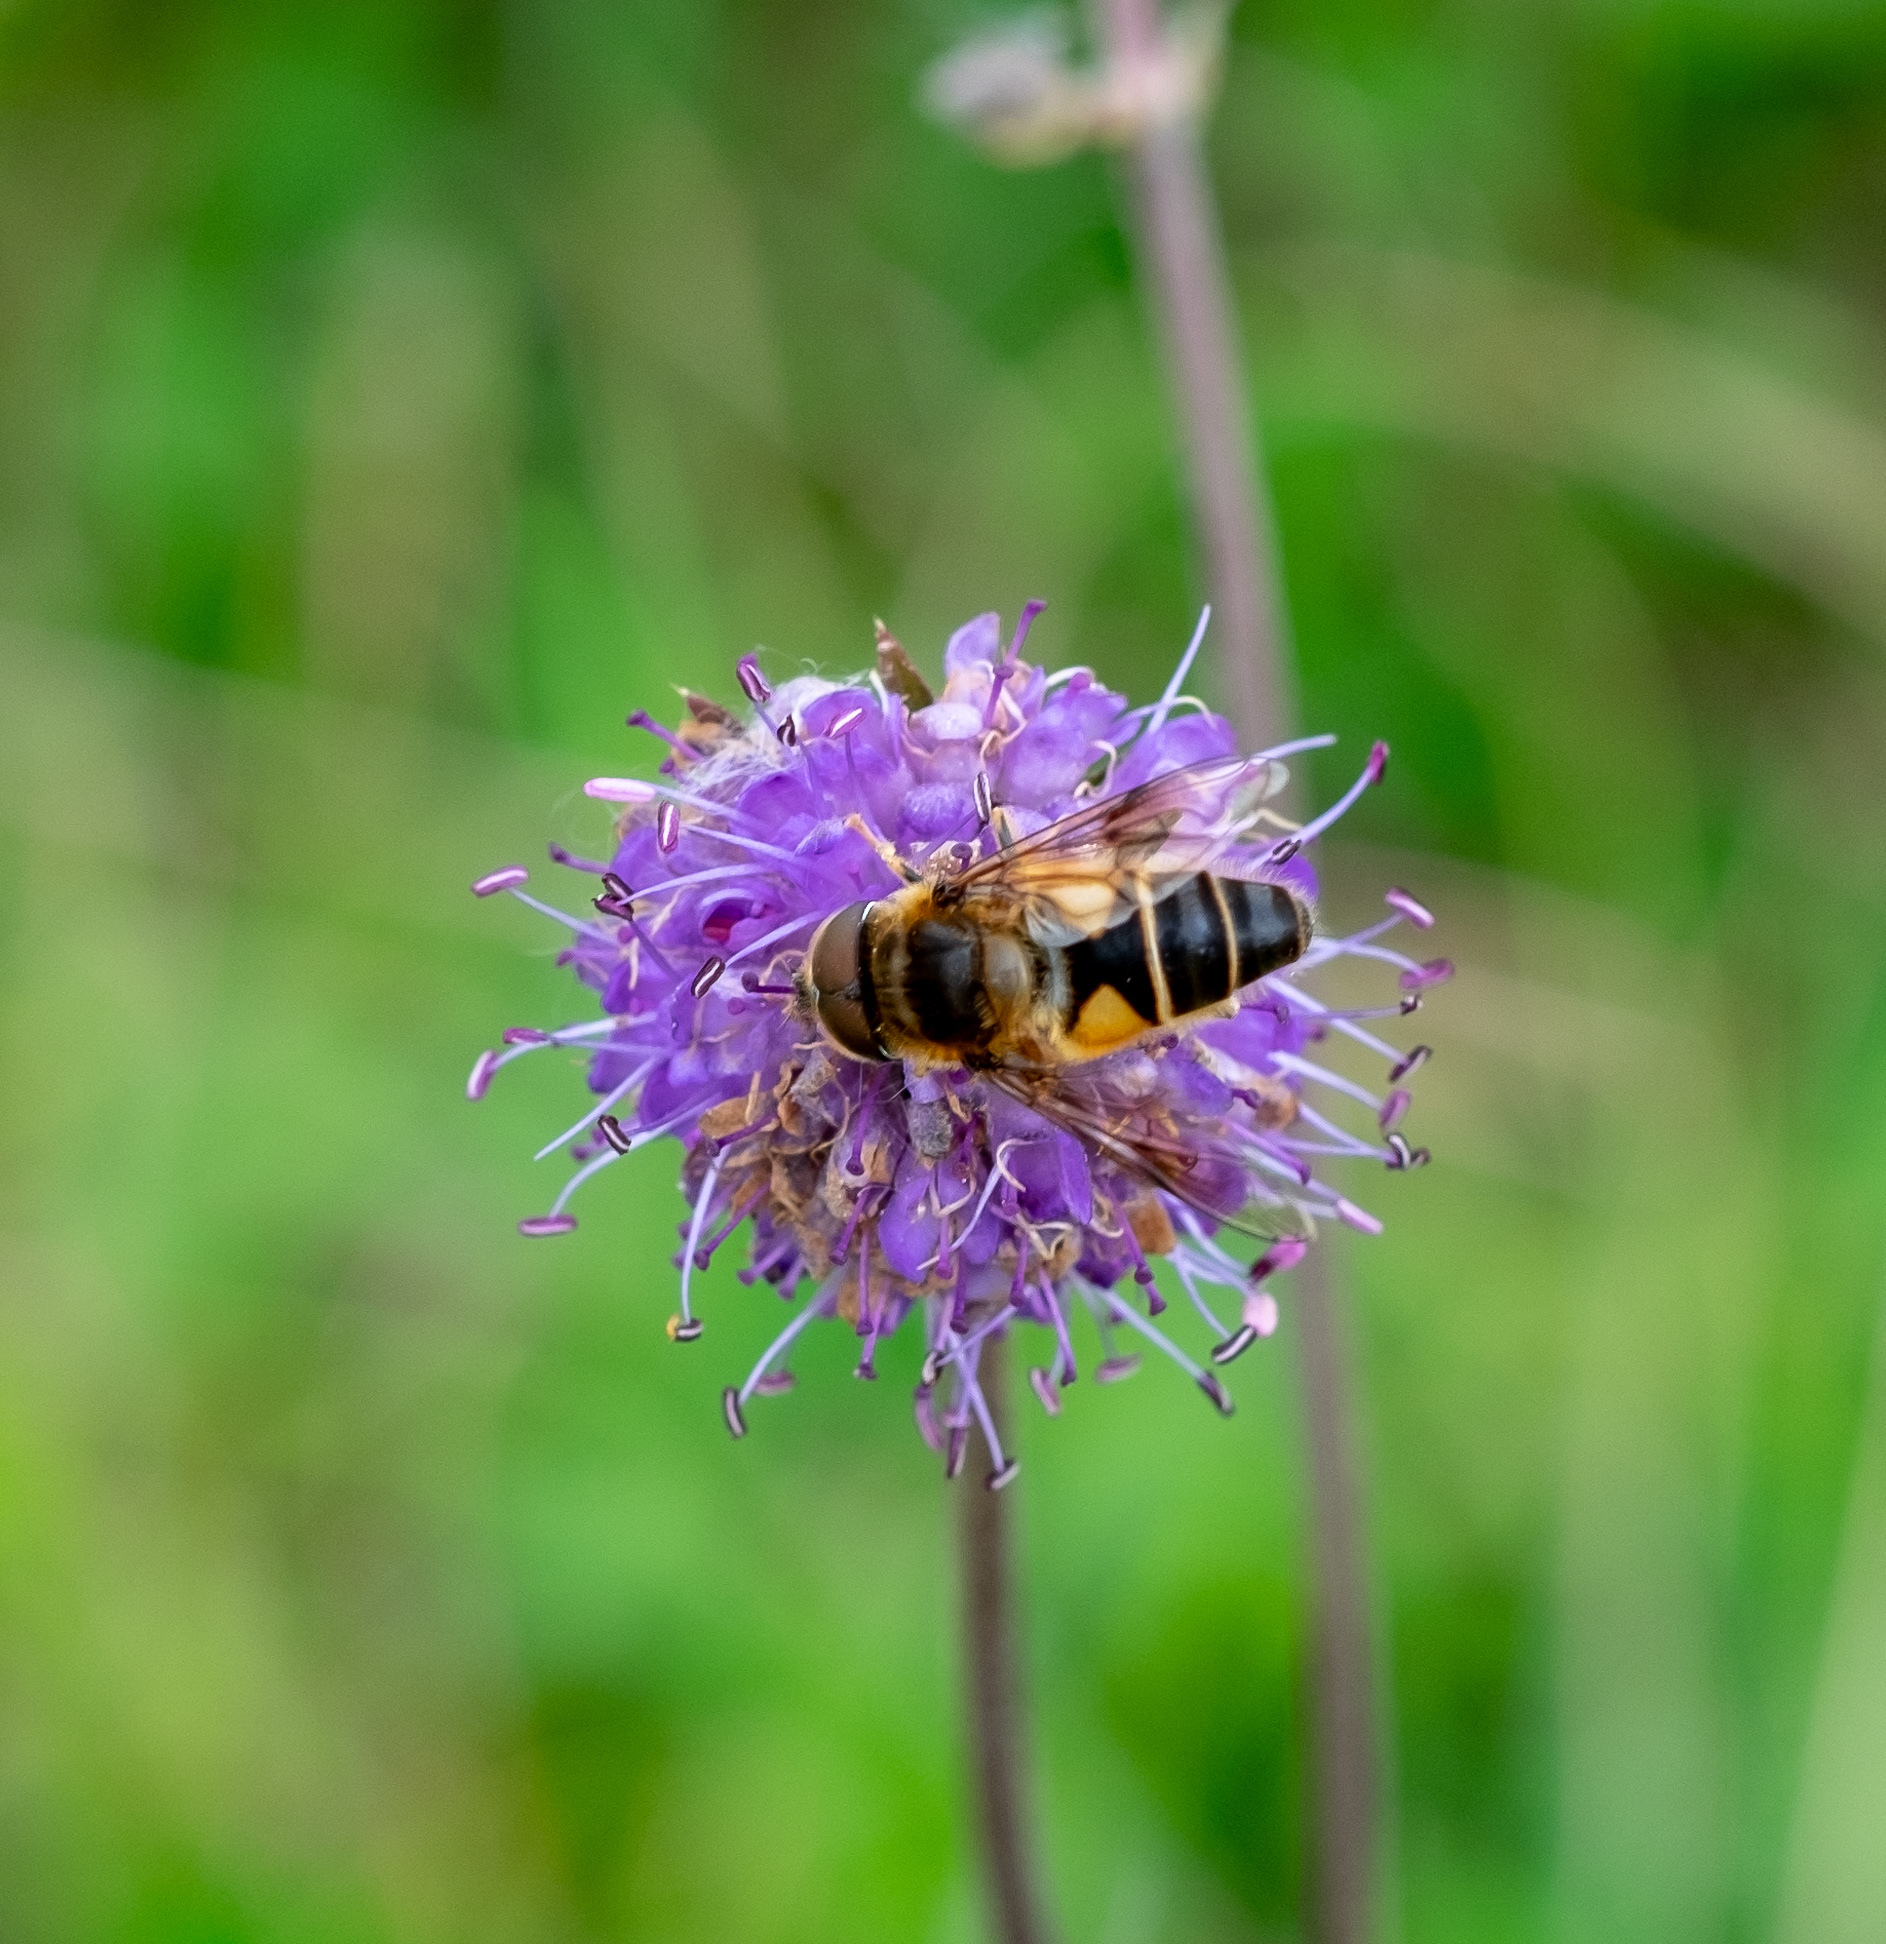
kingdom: Animalia
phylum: Arthropoda
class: Insecta
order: Diptera
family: Syrphidae
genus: Eristalis
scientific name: Eristalis pertinax
